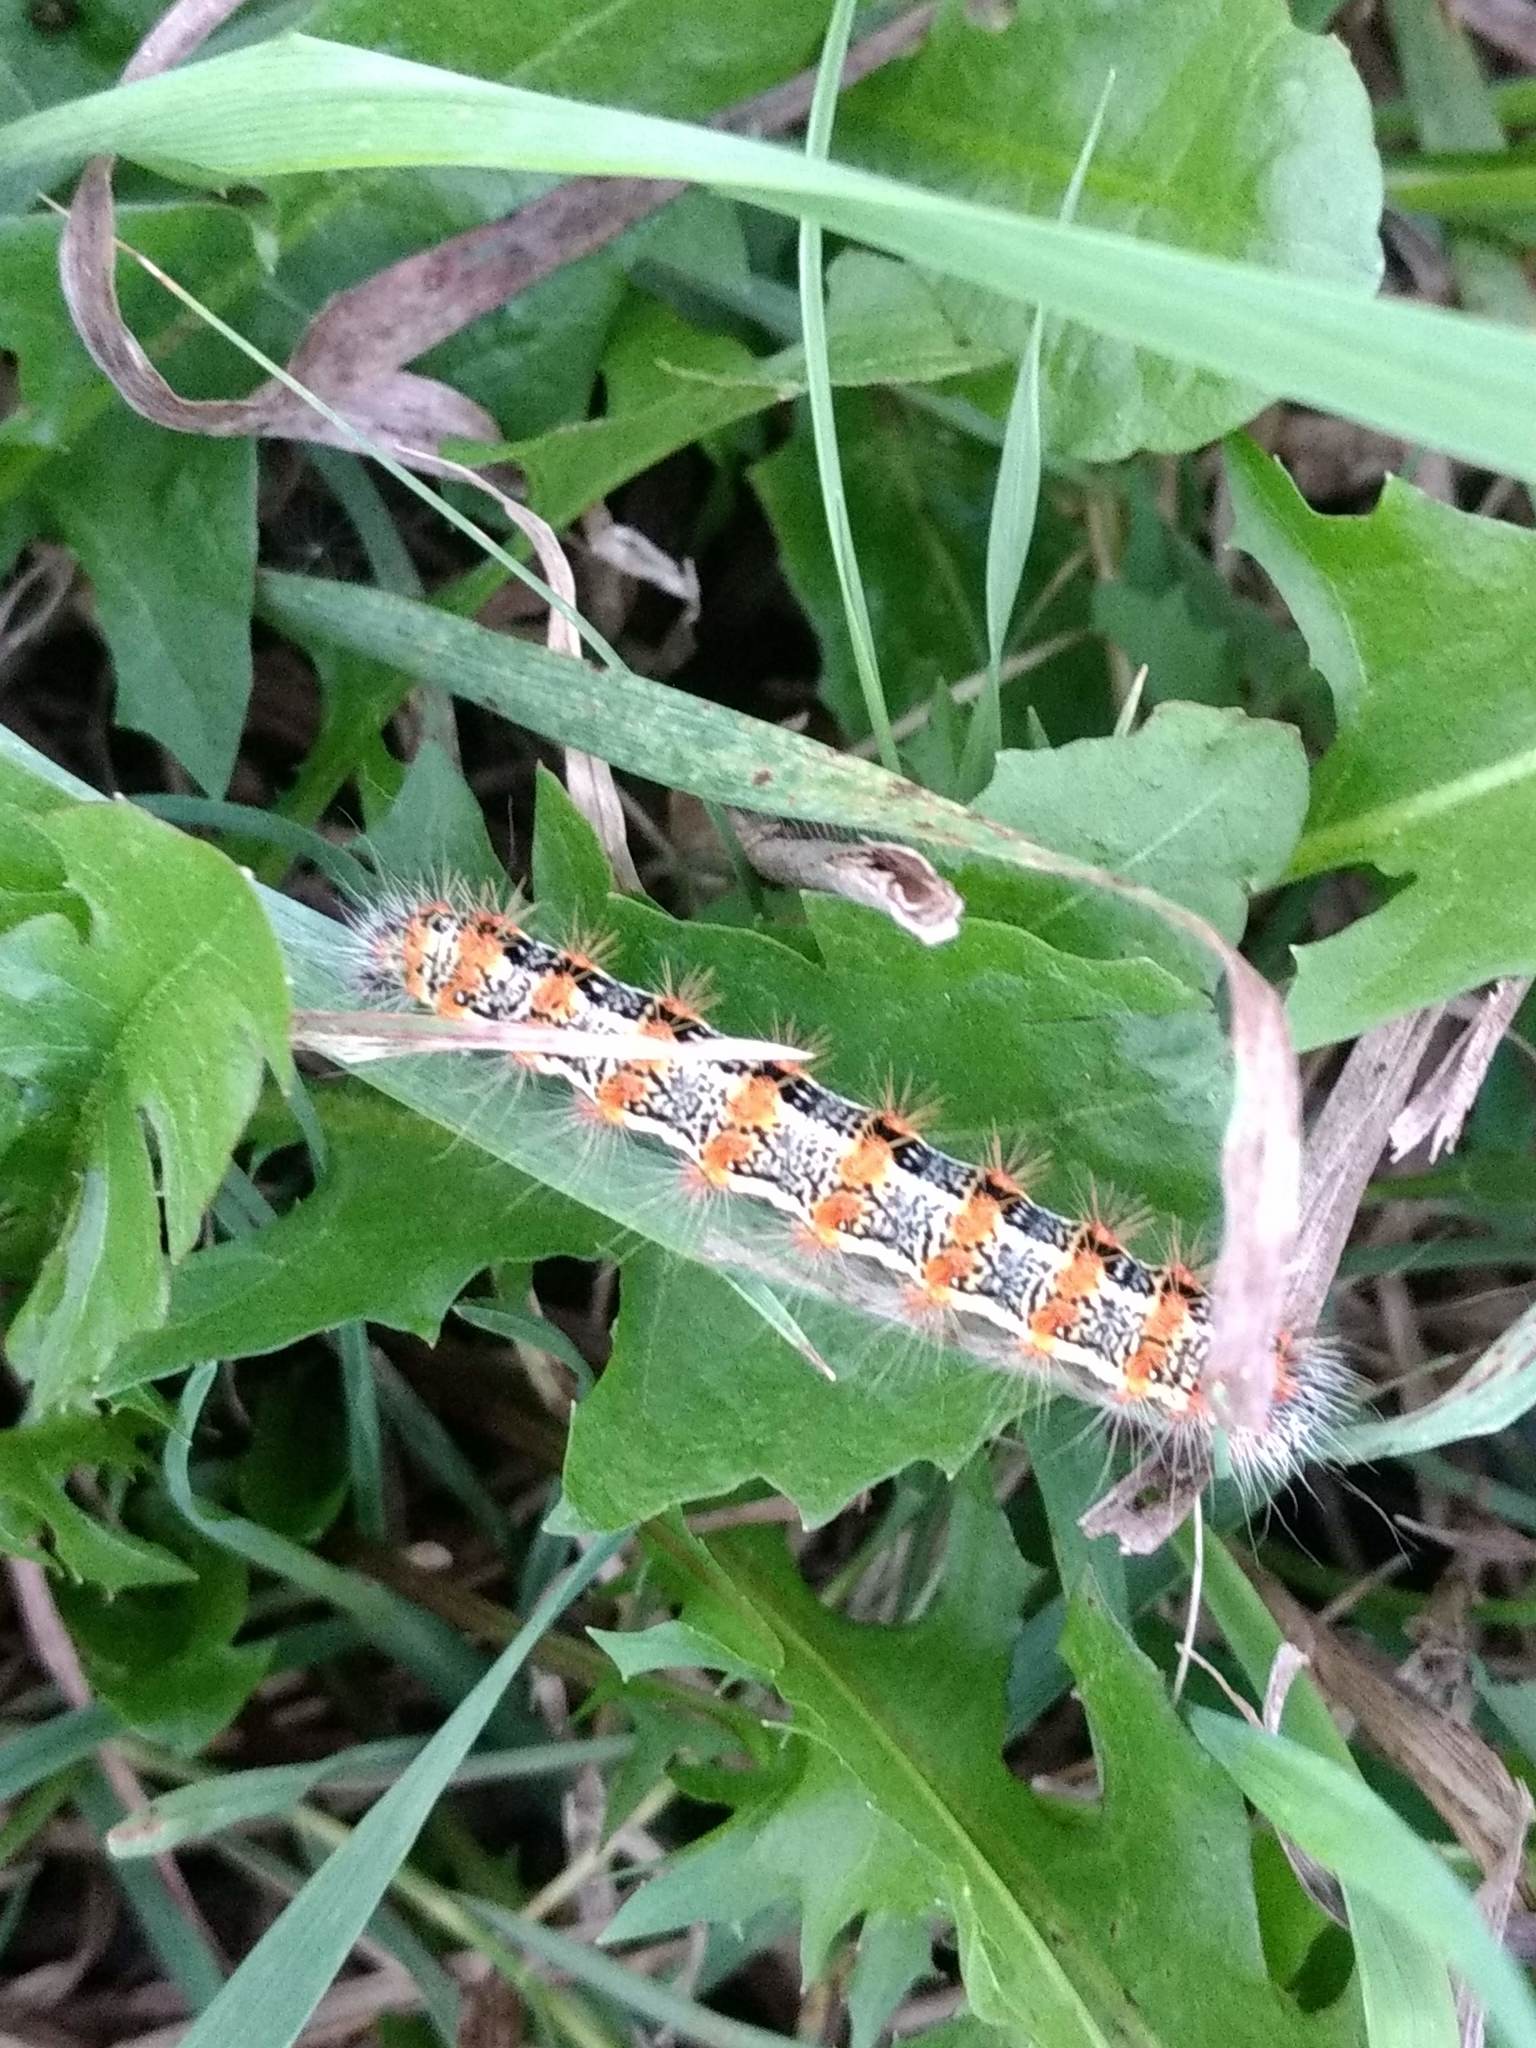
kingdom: Animalia
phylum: Arthropoda
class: Insecta
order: Lepidoptera
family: Noctuidae
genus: Acronicta
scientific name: Acronicta insularis
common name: Henry's marsh moth
